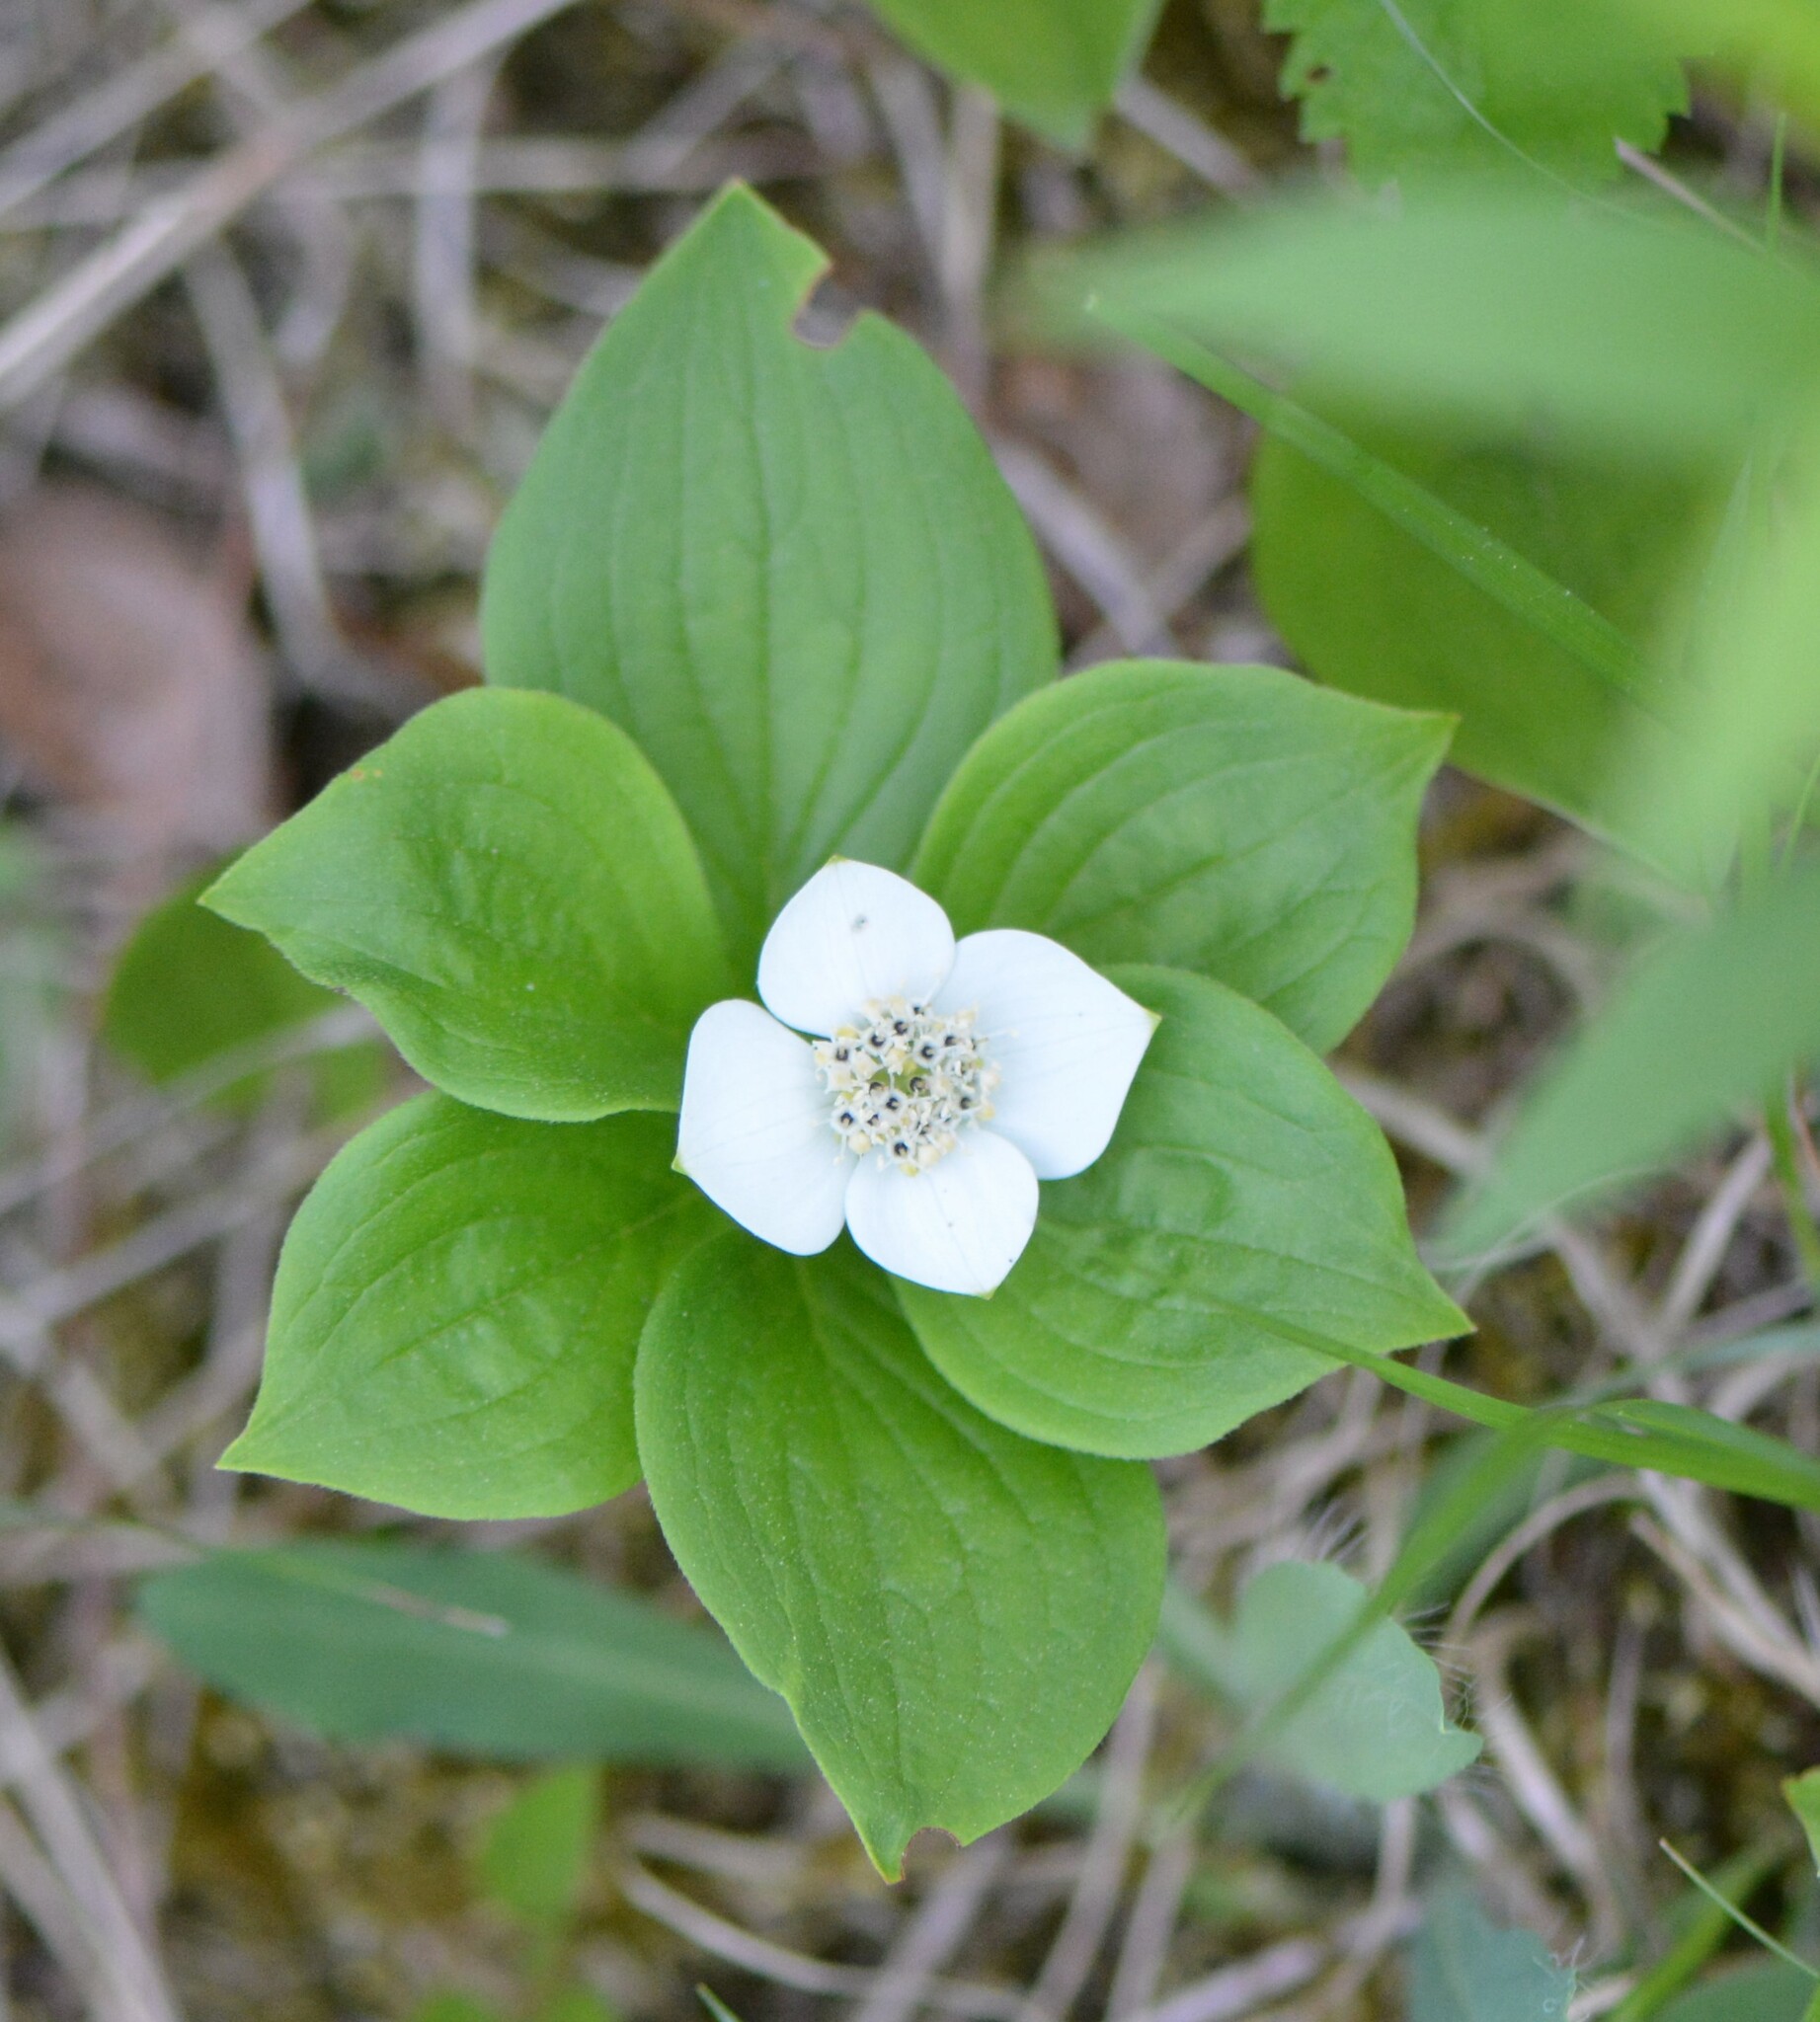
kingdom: Plantae
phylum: Tracheophyta
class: Magnoliopsida
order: Cornales
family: Cornaceae
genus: Cornus
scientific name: Cornus canadensis
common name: Creeping dogwood
